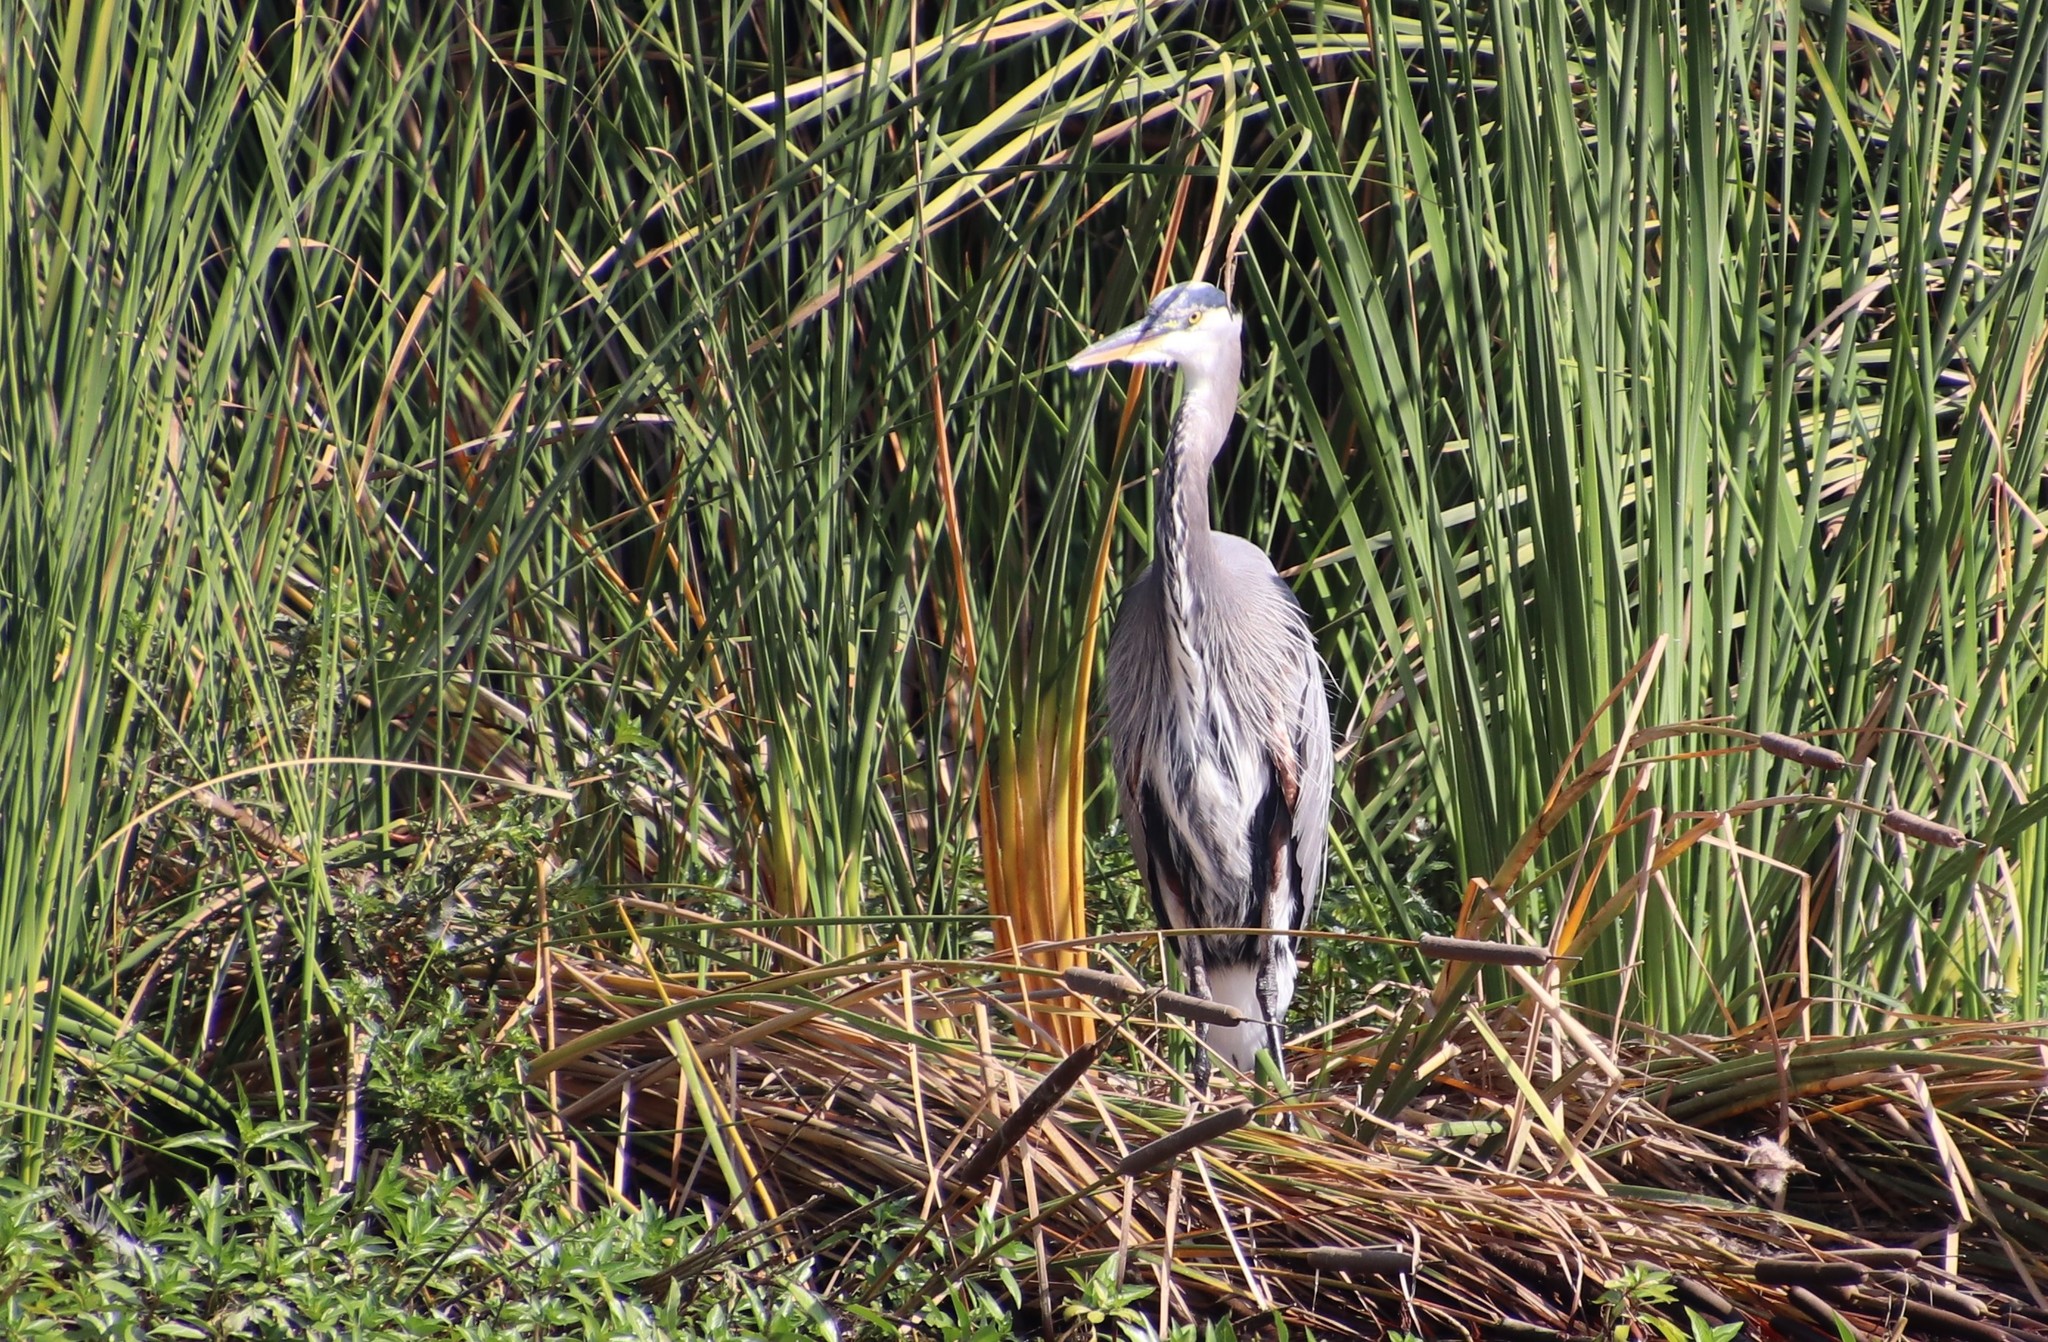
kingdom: Animalia
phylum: Chordata
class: Aves
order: Pelecaniformes
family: Ardeidae
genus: Ardea
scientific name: Ardea herodias
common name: Great blue heron
